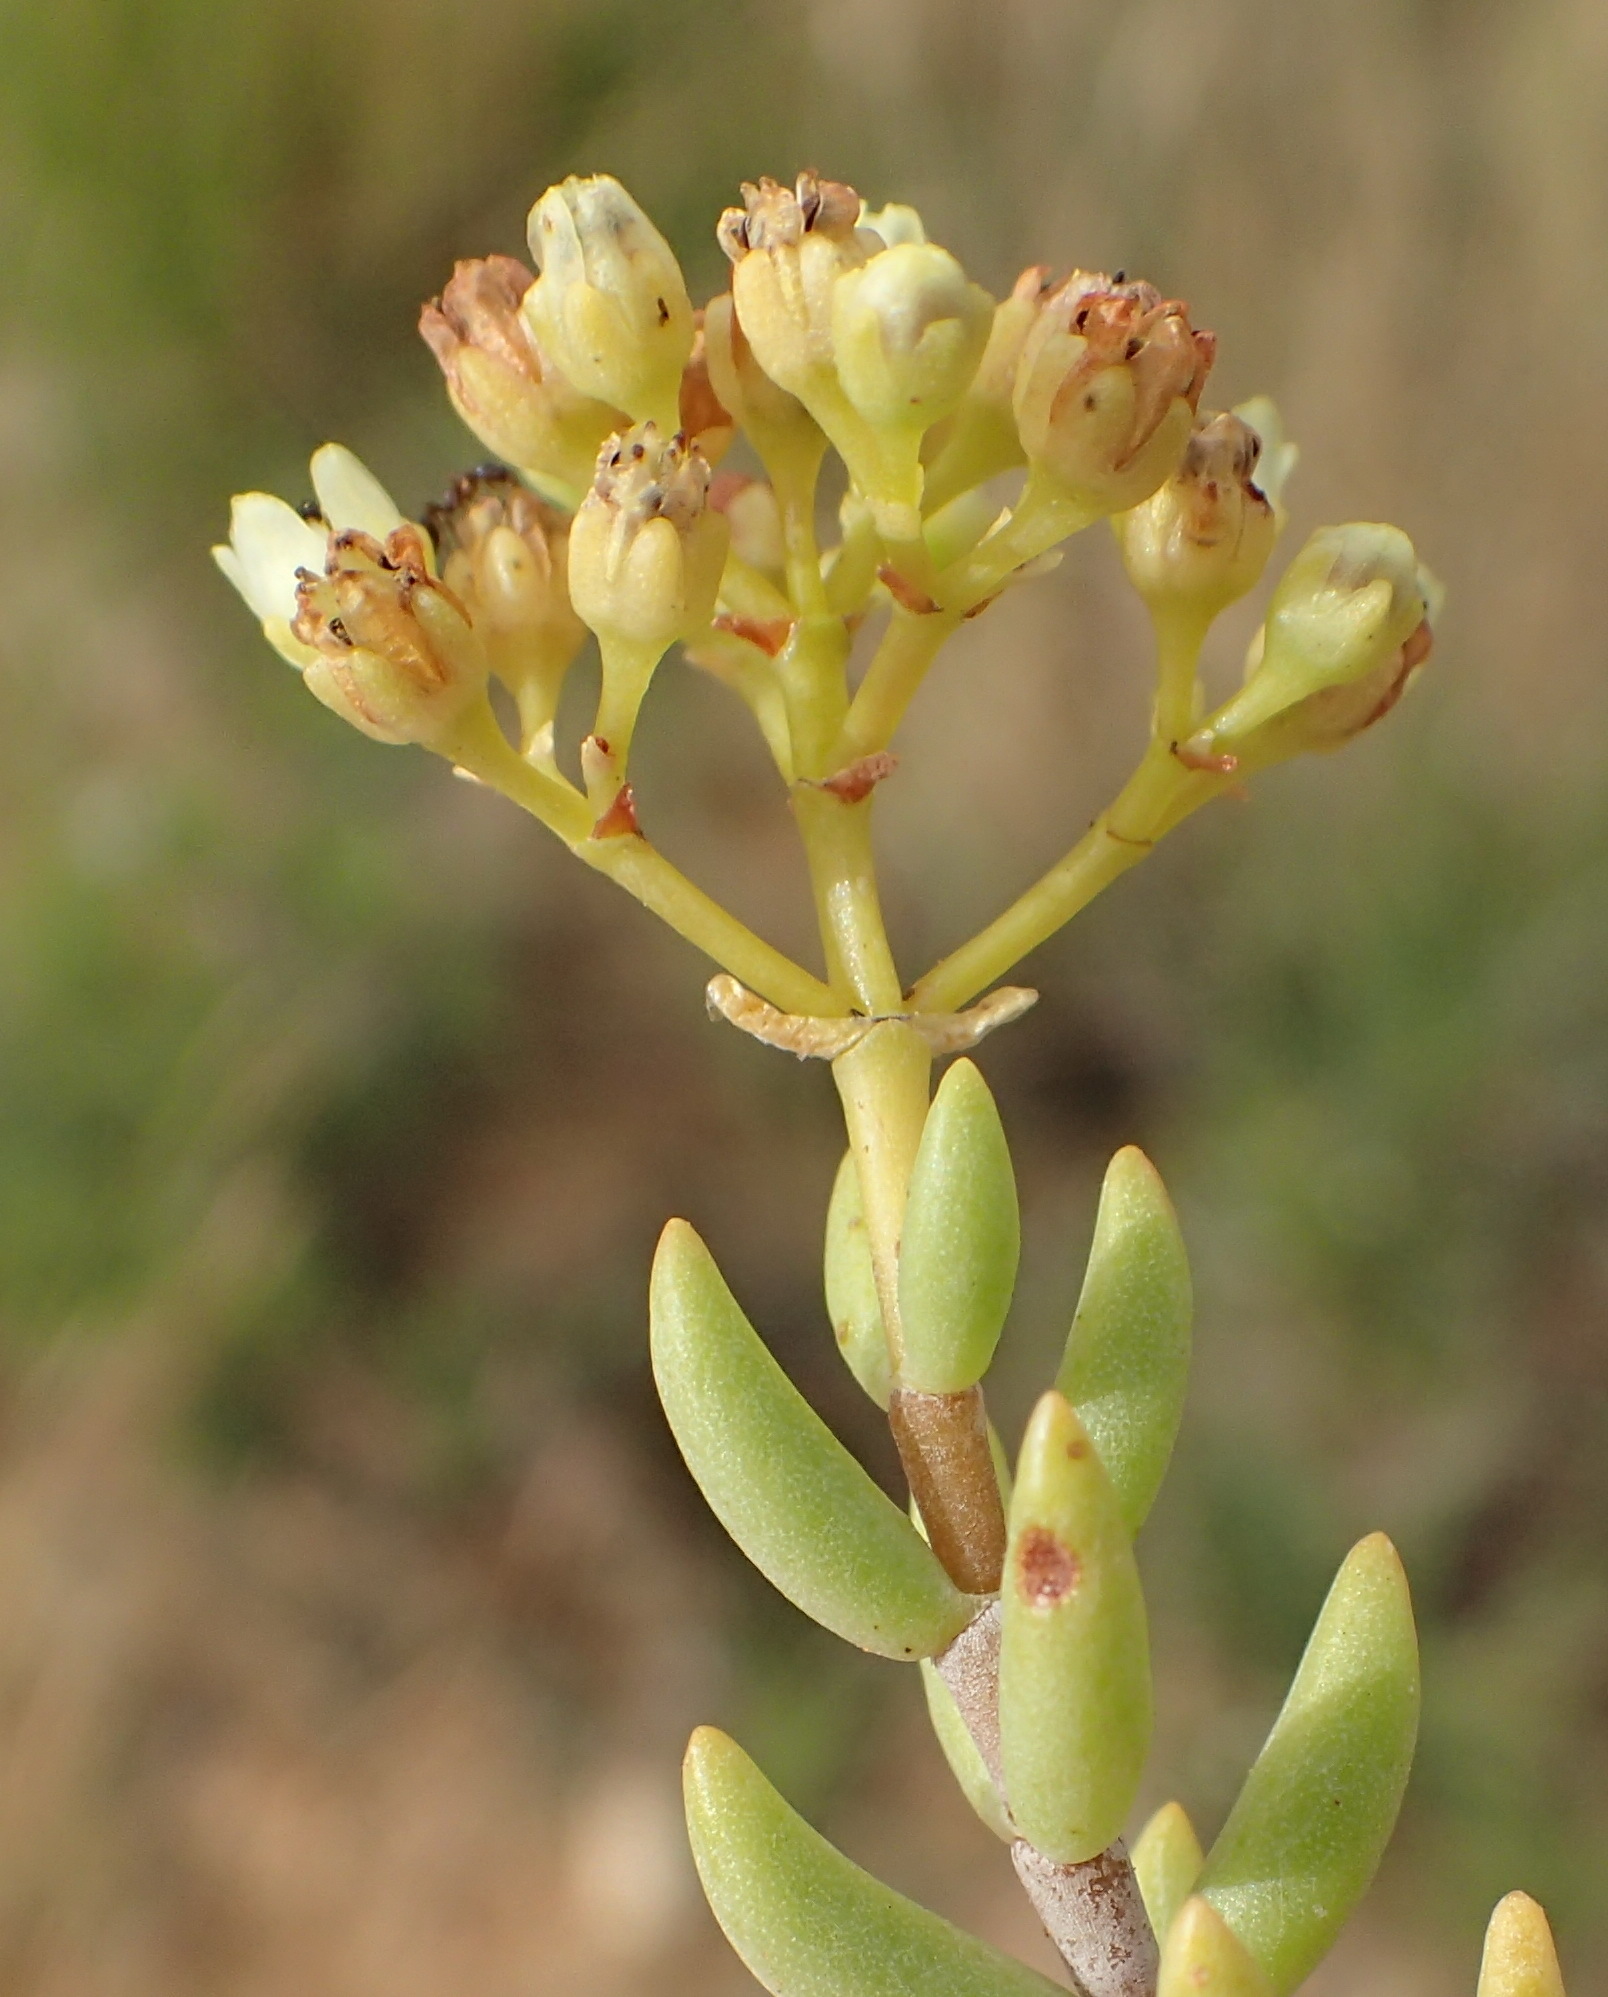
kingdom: Plantae
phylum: Tracheophyta
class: Magnoliopsida
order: Saxifragales
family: Crassulaceae
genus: Crassula
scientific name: Crassula tetragona
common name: Pygmyweed
